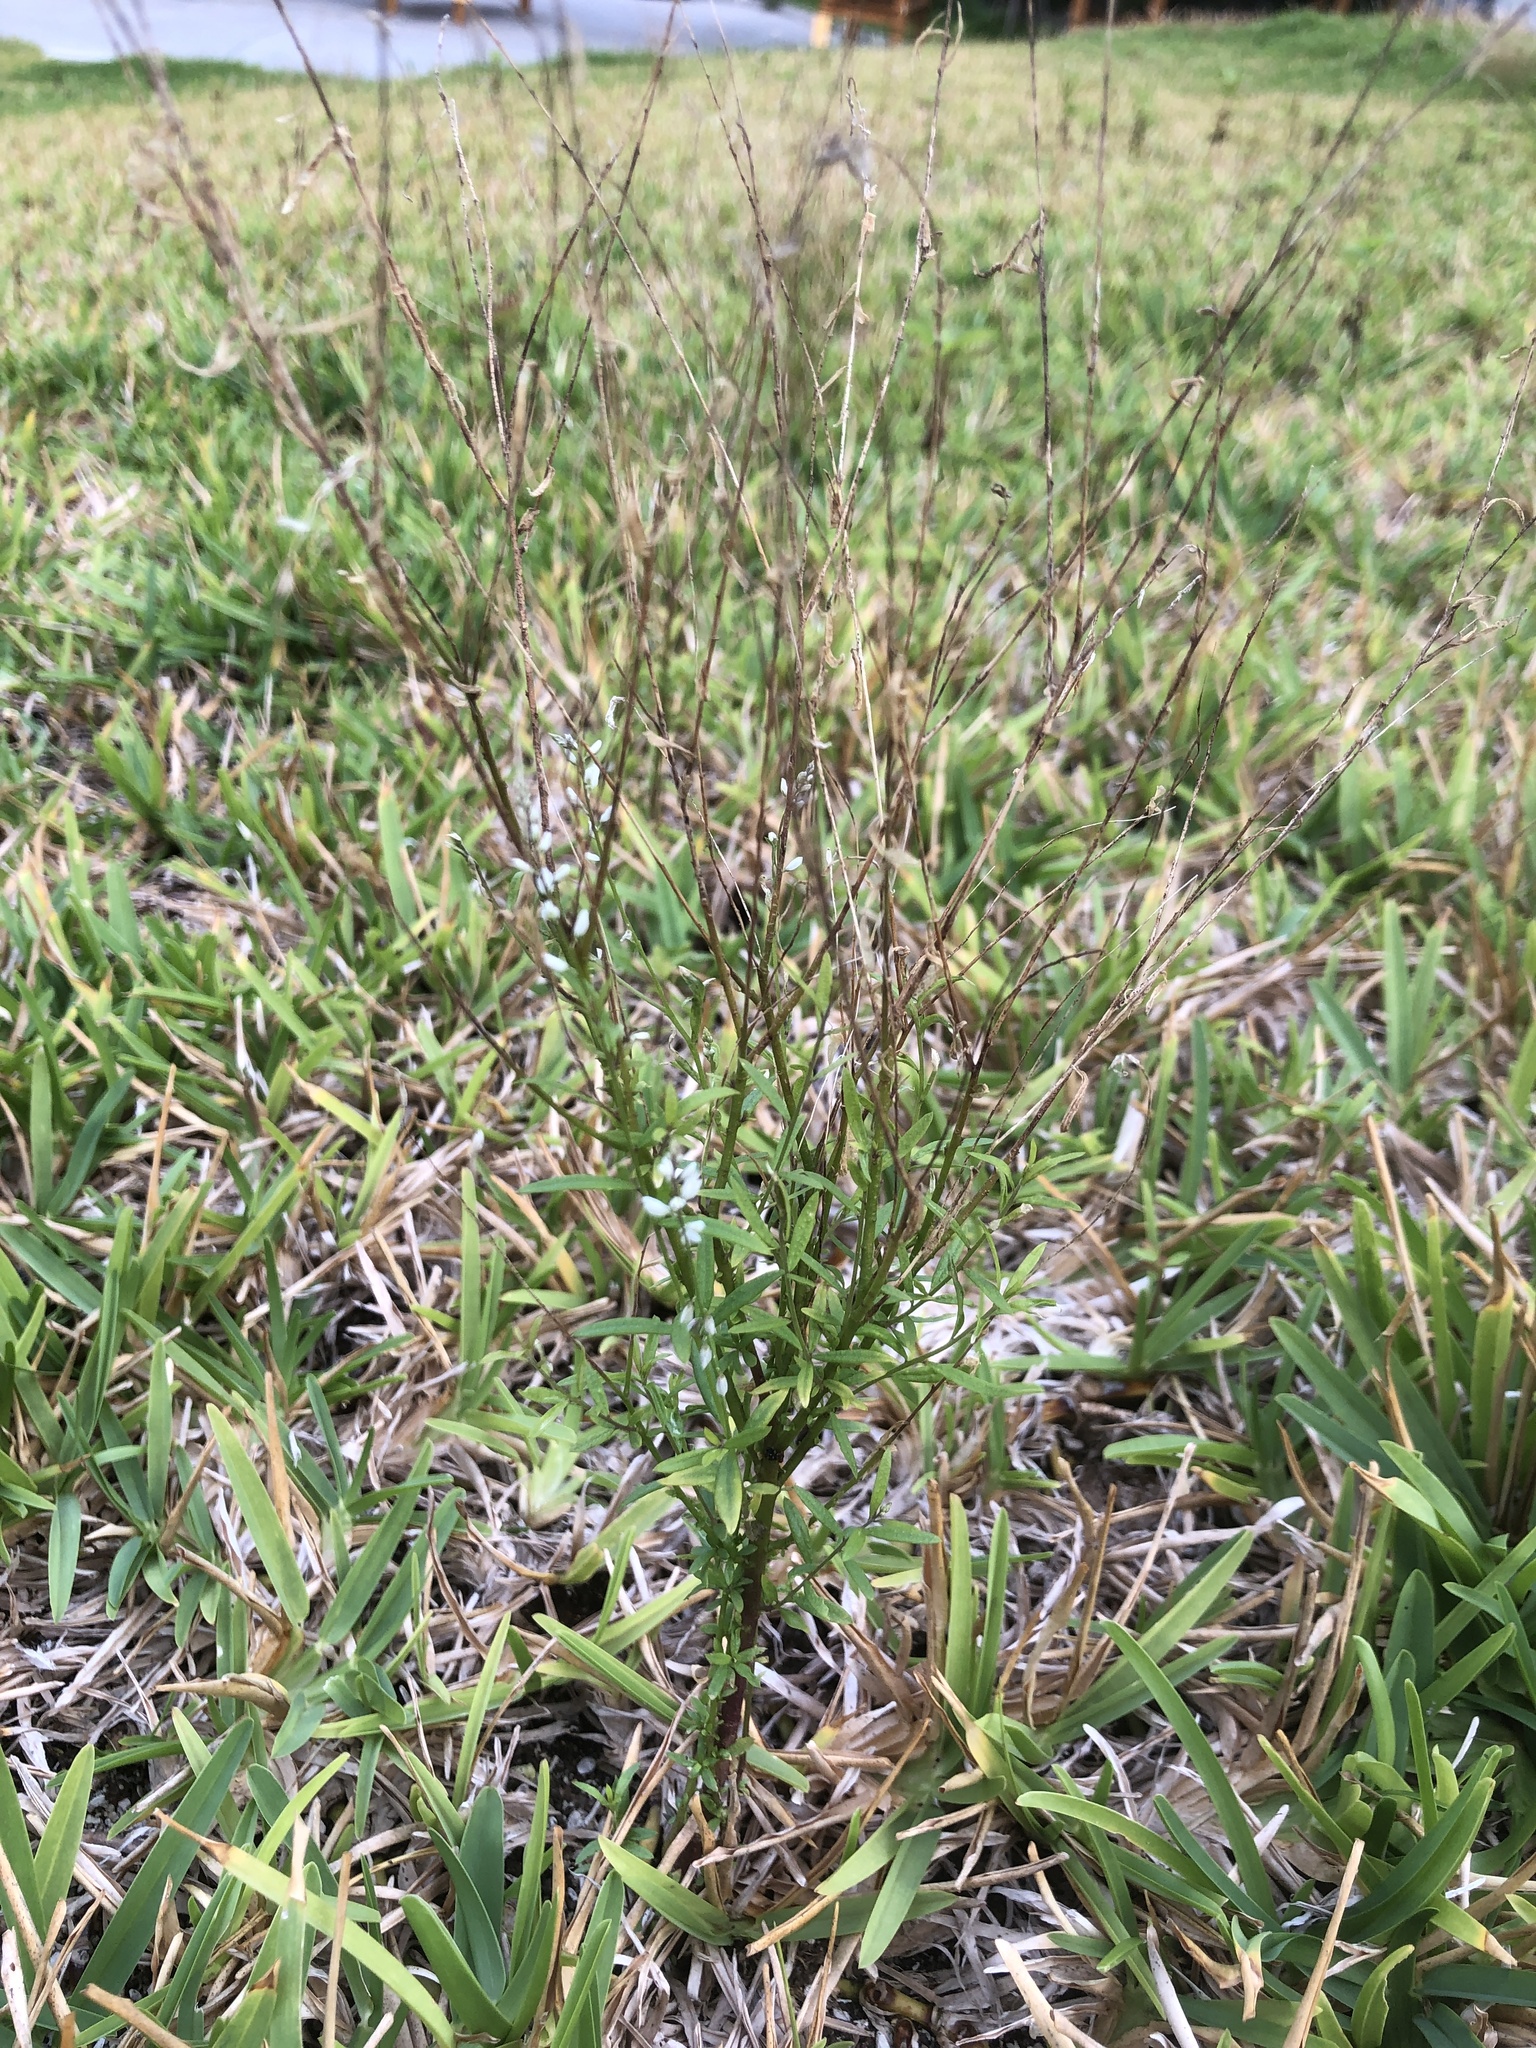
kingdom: Plantae
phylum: Tracheophyta
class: Magnoliopsida
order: Fabales
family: Polygalaceae
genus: Polygala
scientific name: Polygala paniculata
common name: Orosne
